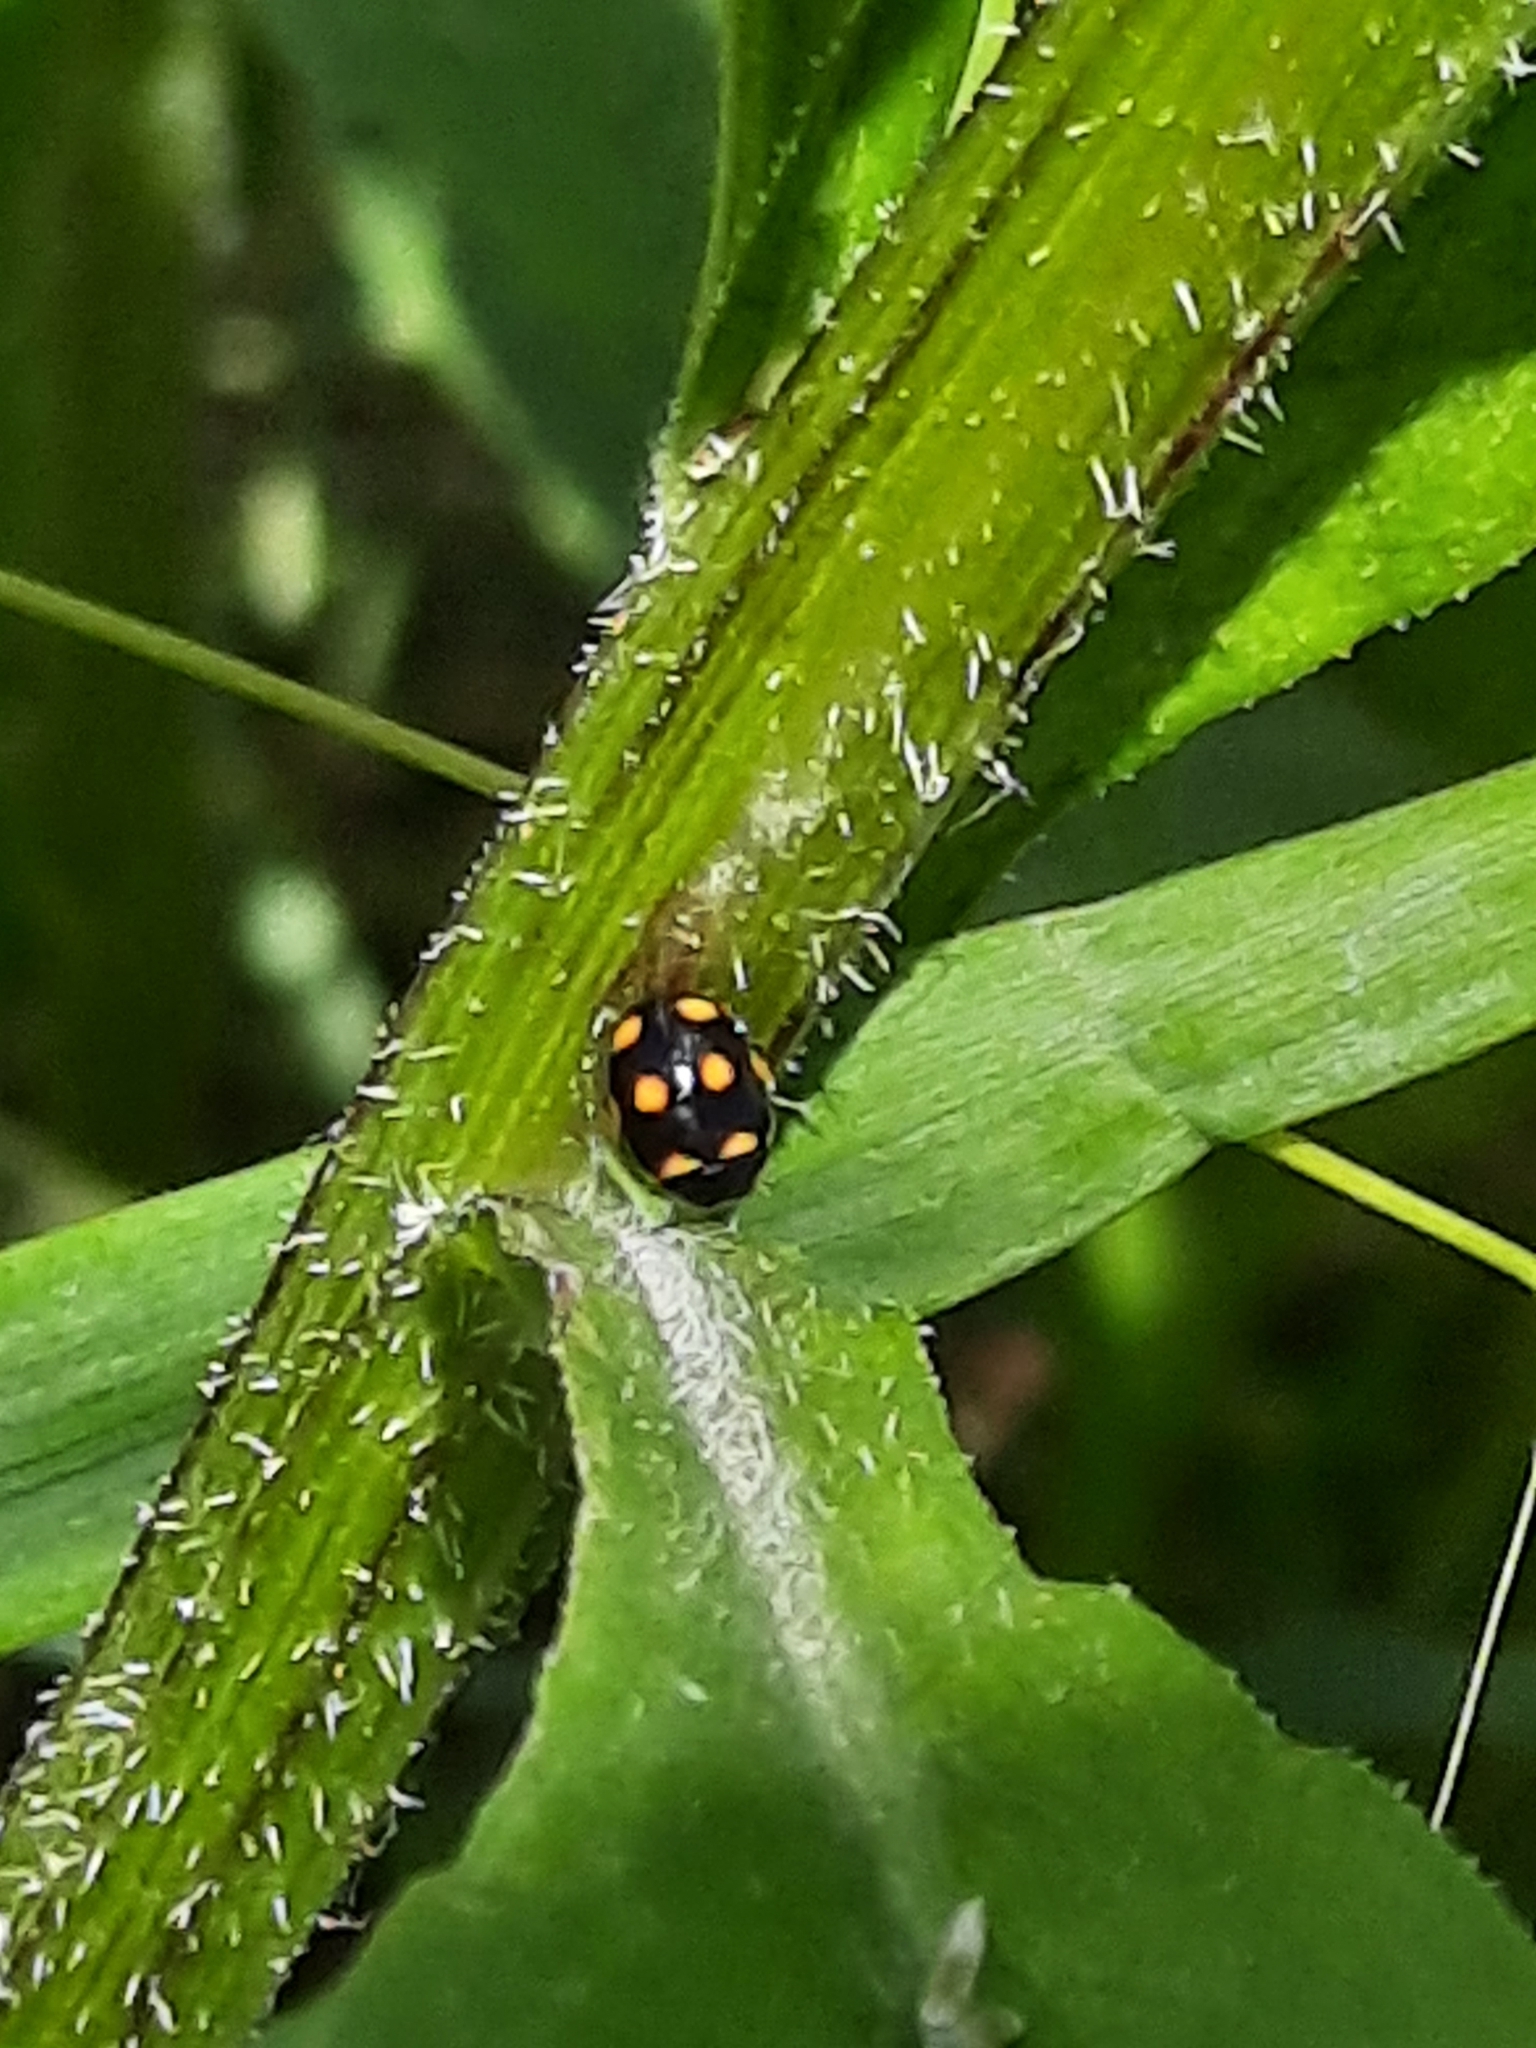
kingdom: Animalia
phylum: Arthropoda
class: Insecta
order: Coleoptera
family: Coccinellidae
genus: Brachiacantha
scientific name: Brachiacantha ursina
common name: Ursine spurleg lady beetle
